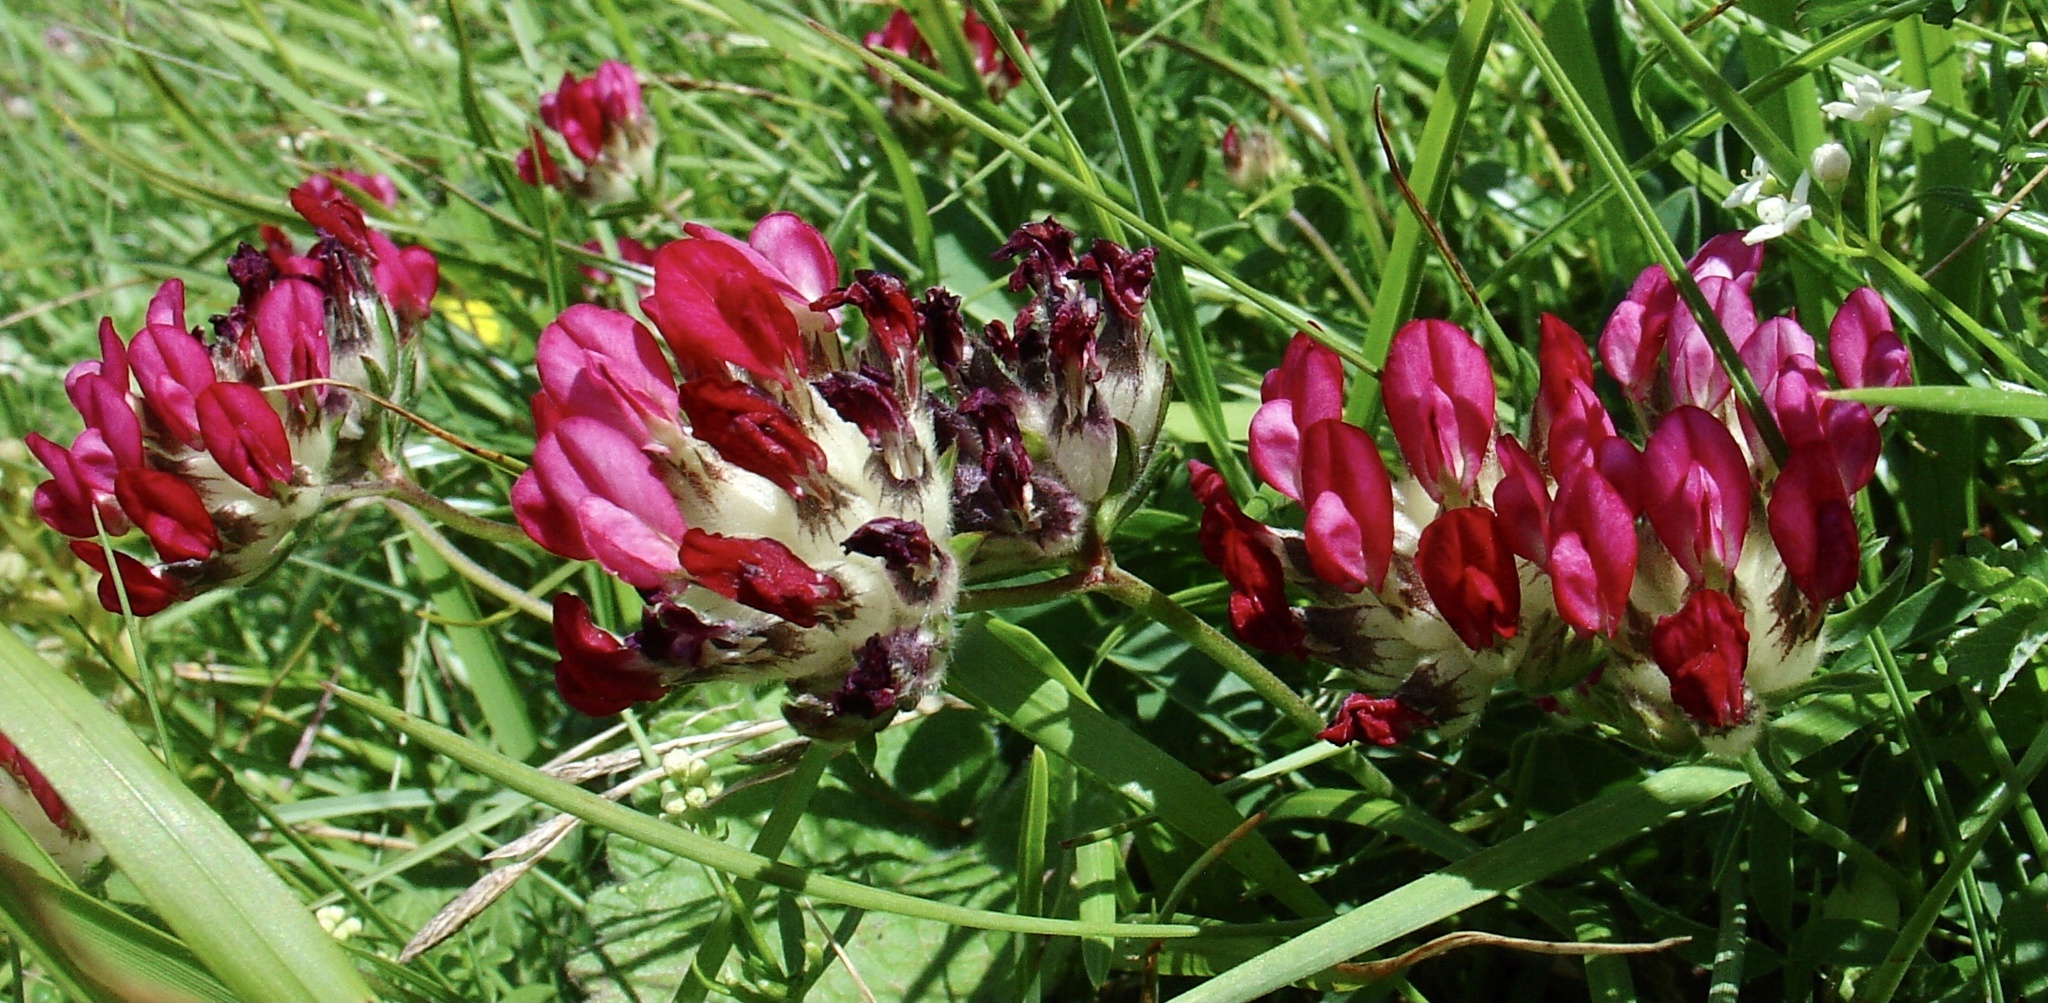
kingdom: Plantae
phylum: Tracheophyta
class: Magnoliopsida
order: Fabales
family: Fabaceae
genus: Anthyllis
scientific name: Anthyllis vulneraria
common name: Kidney vetch
